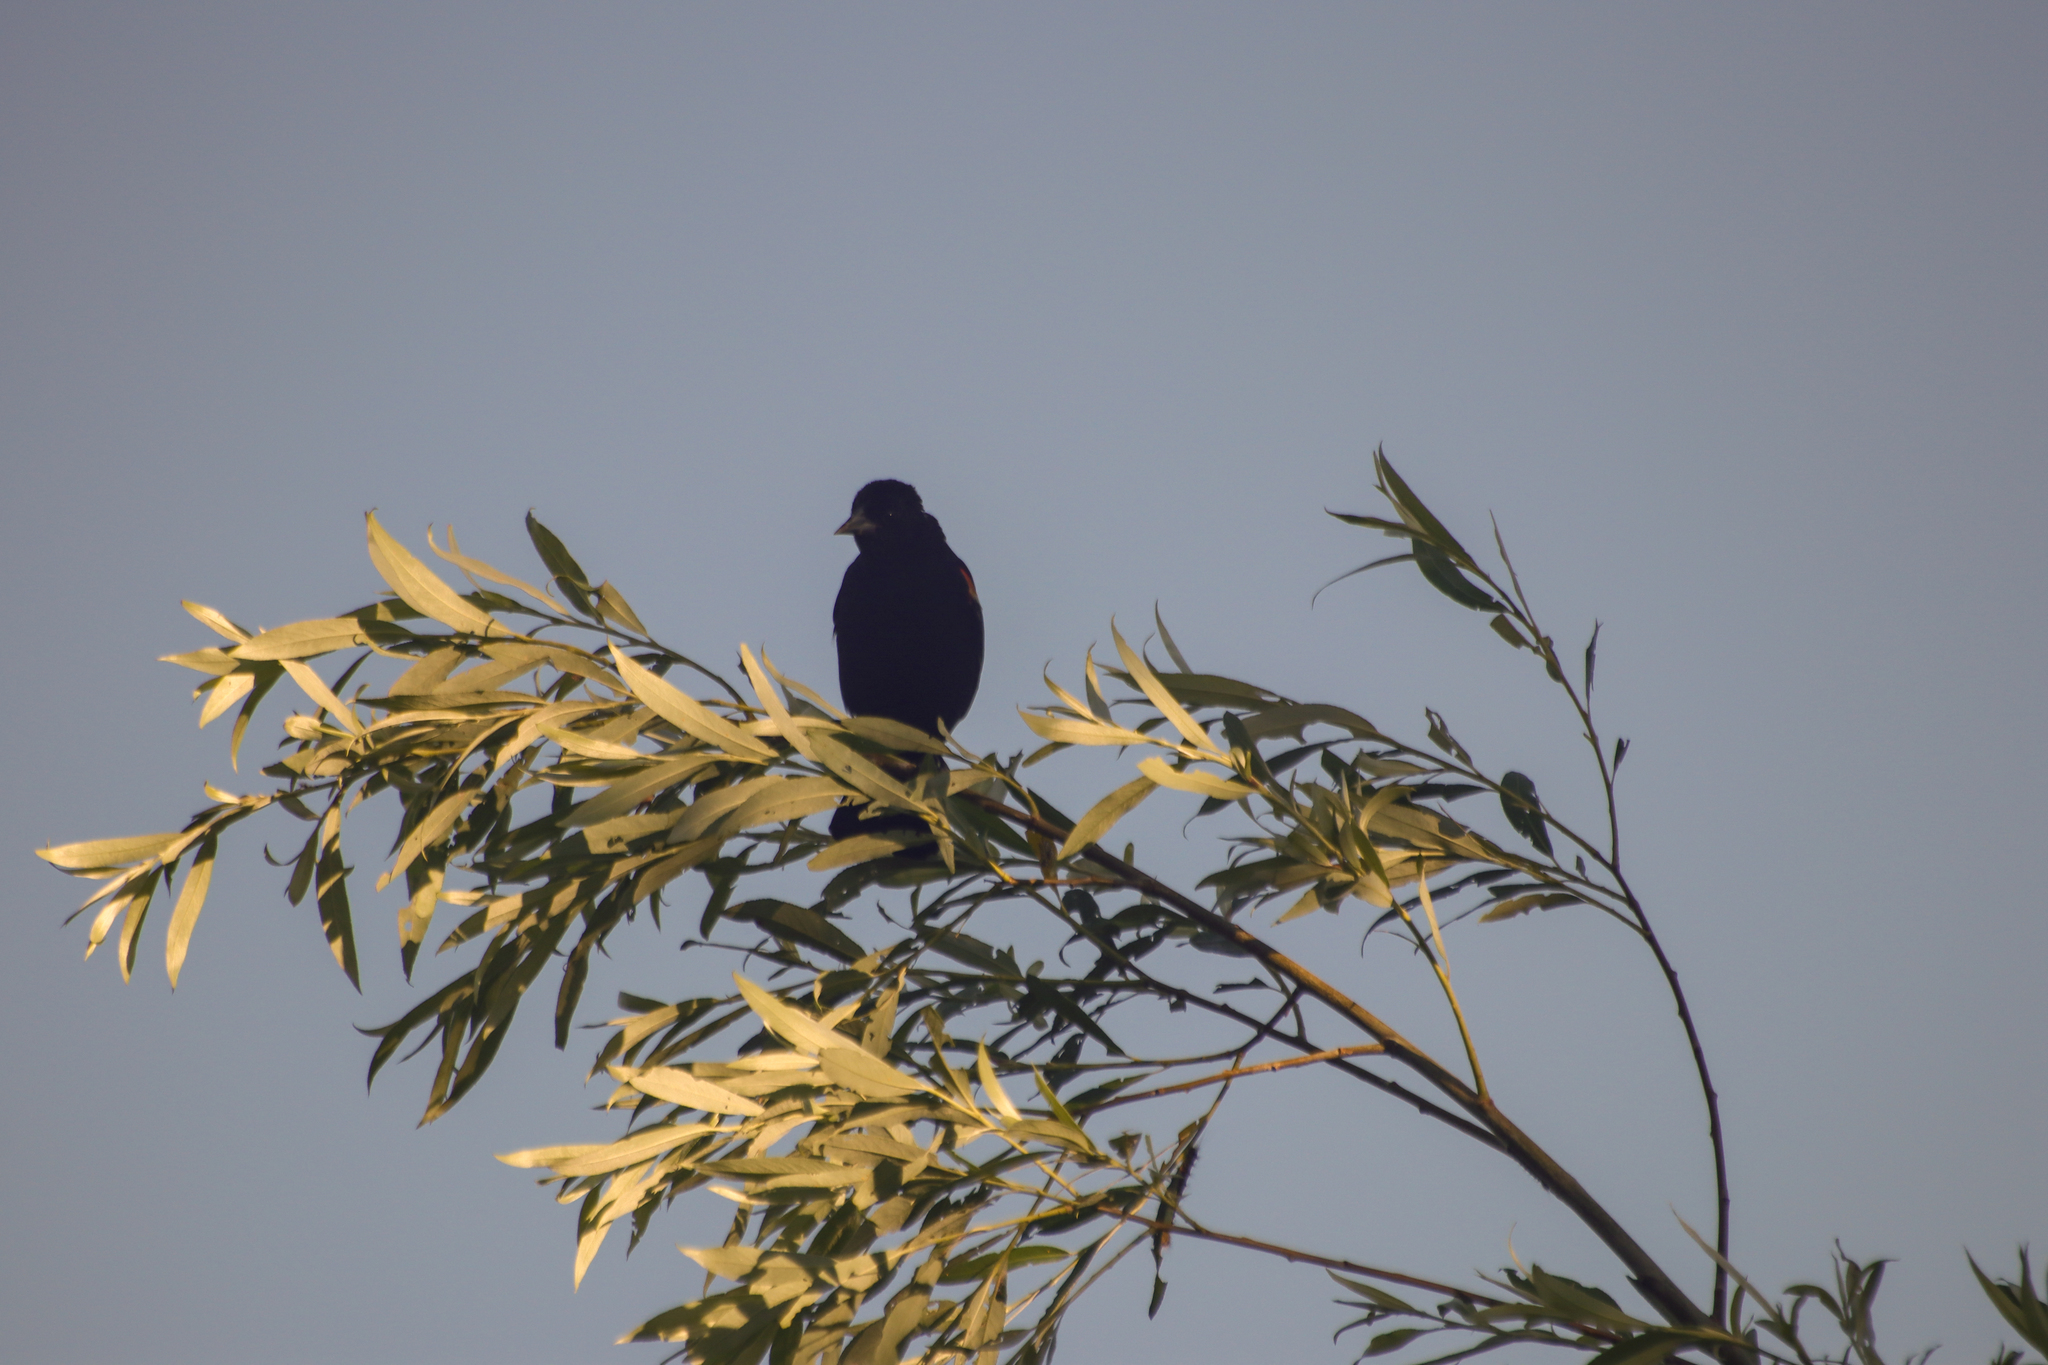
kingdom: Animalia
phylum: Chordata
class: Aves
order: Passeriformes
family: Icteridae
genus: Agelaius
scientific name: Agelaius phoeniceus
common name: Red-winged blackbird
